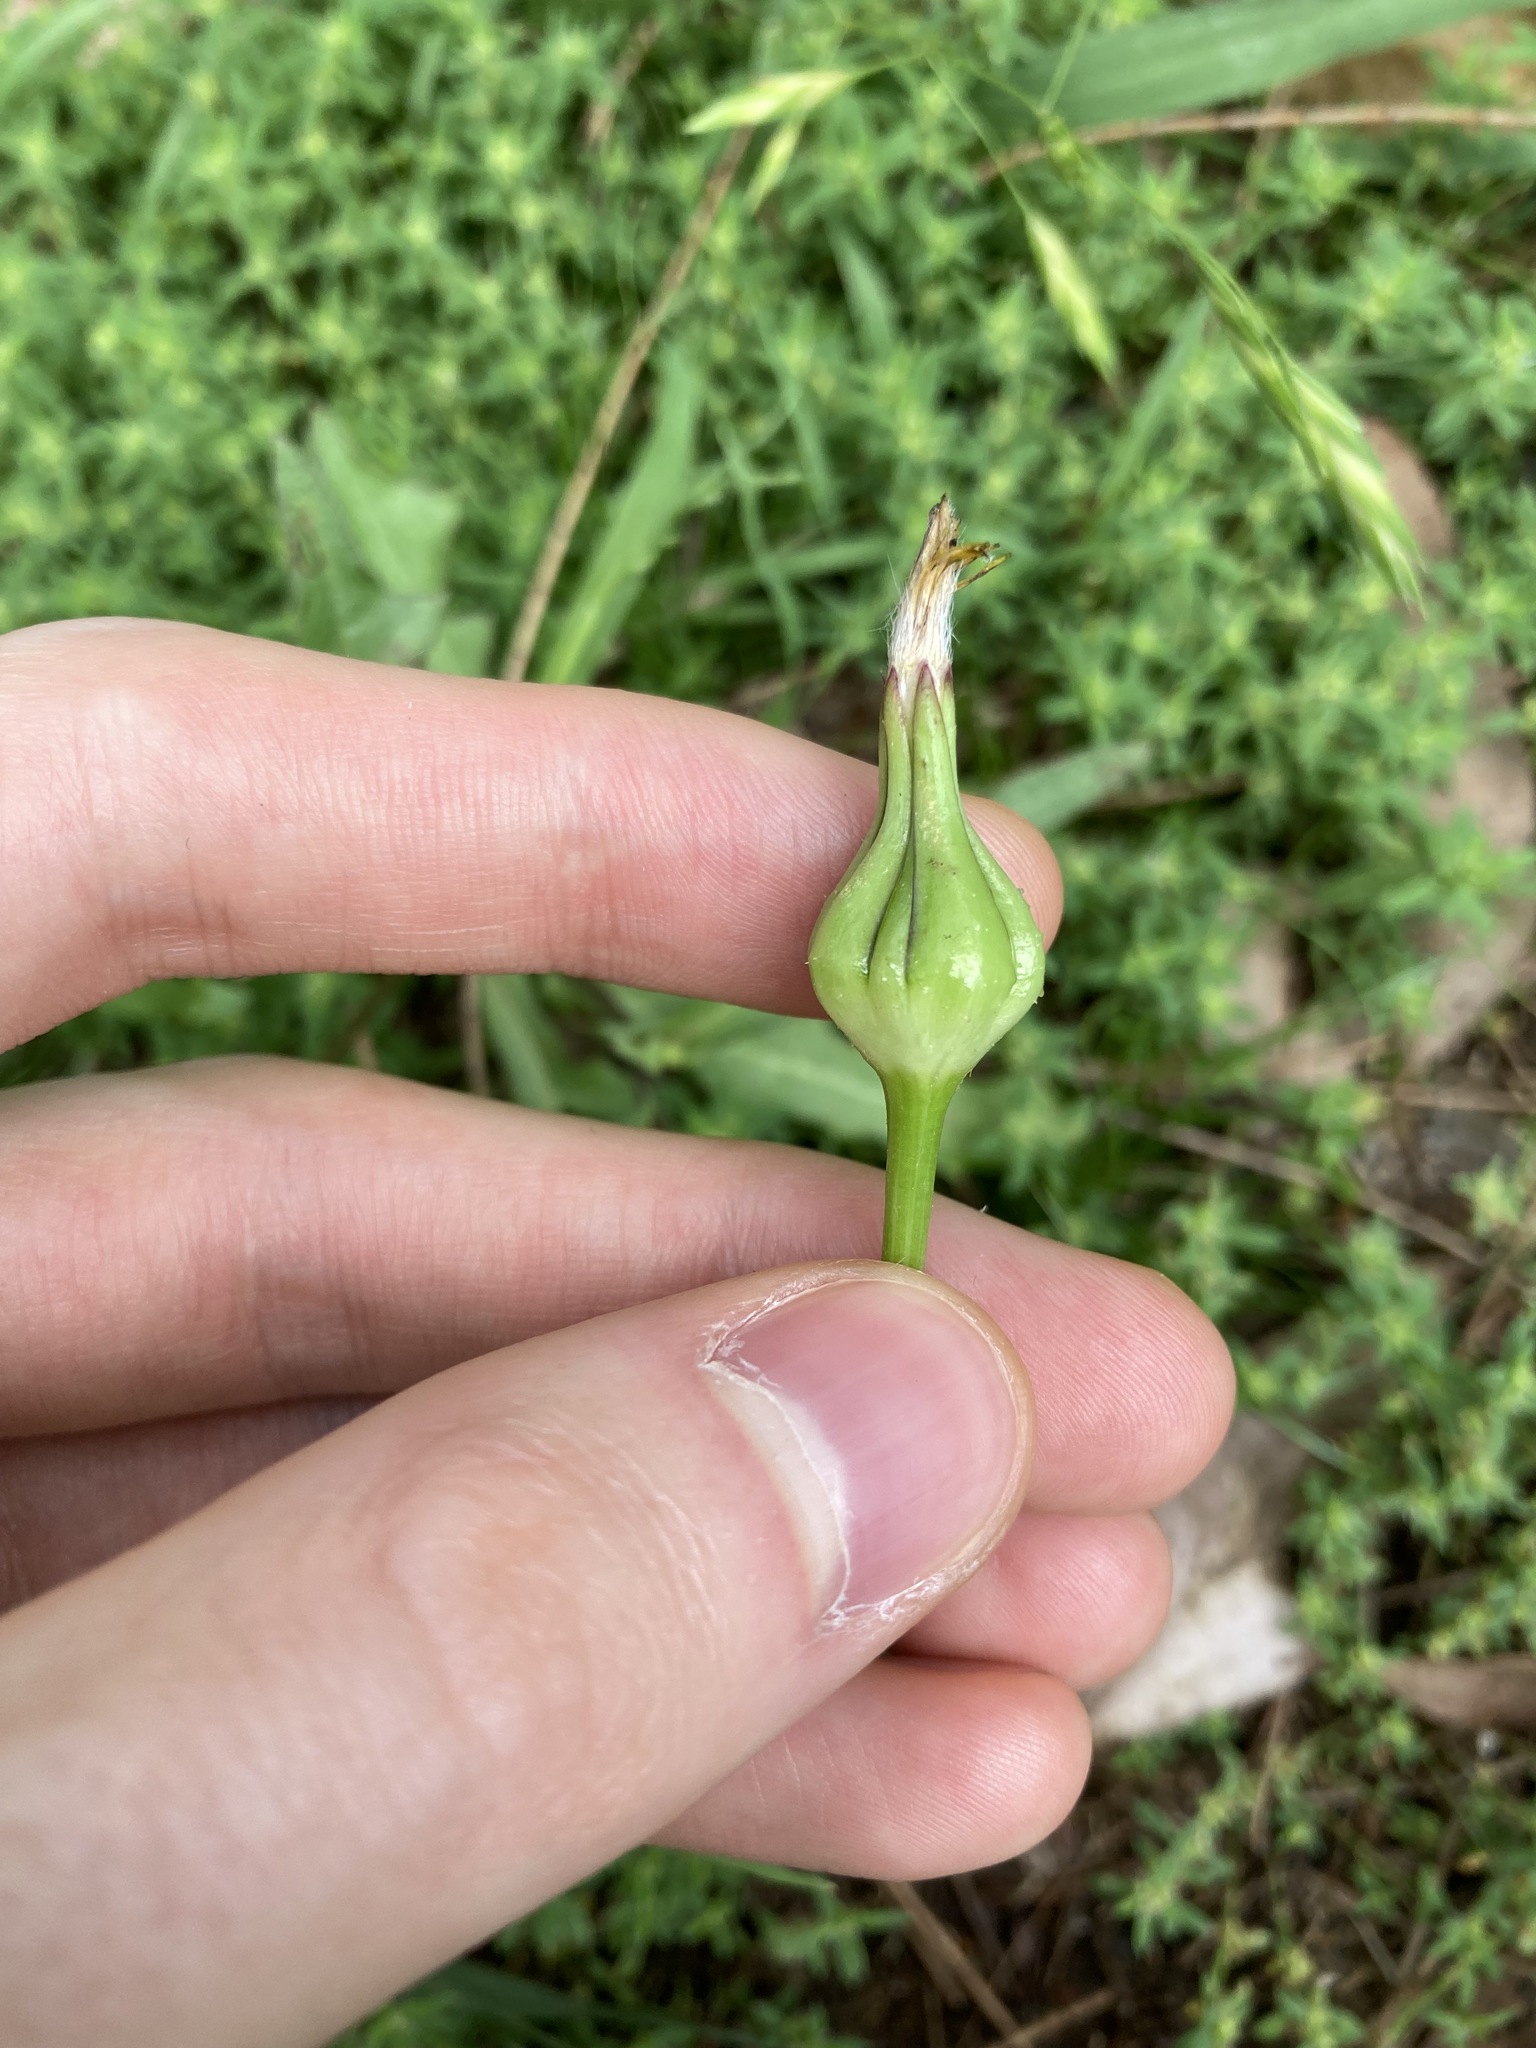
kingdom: Plantae
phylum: Tracheophyta
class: Magnoliopsida
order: Asterales
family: Asteraceae
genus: Urospermum
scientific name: Urospermum picroides
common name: False hawkbit
